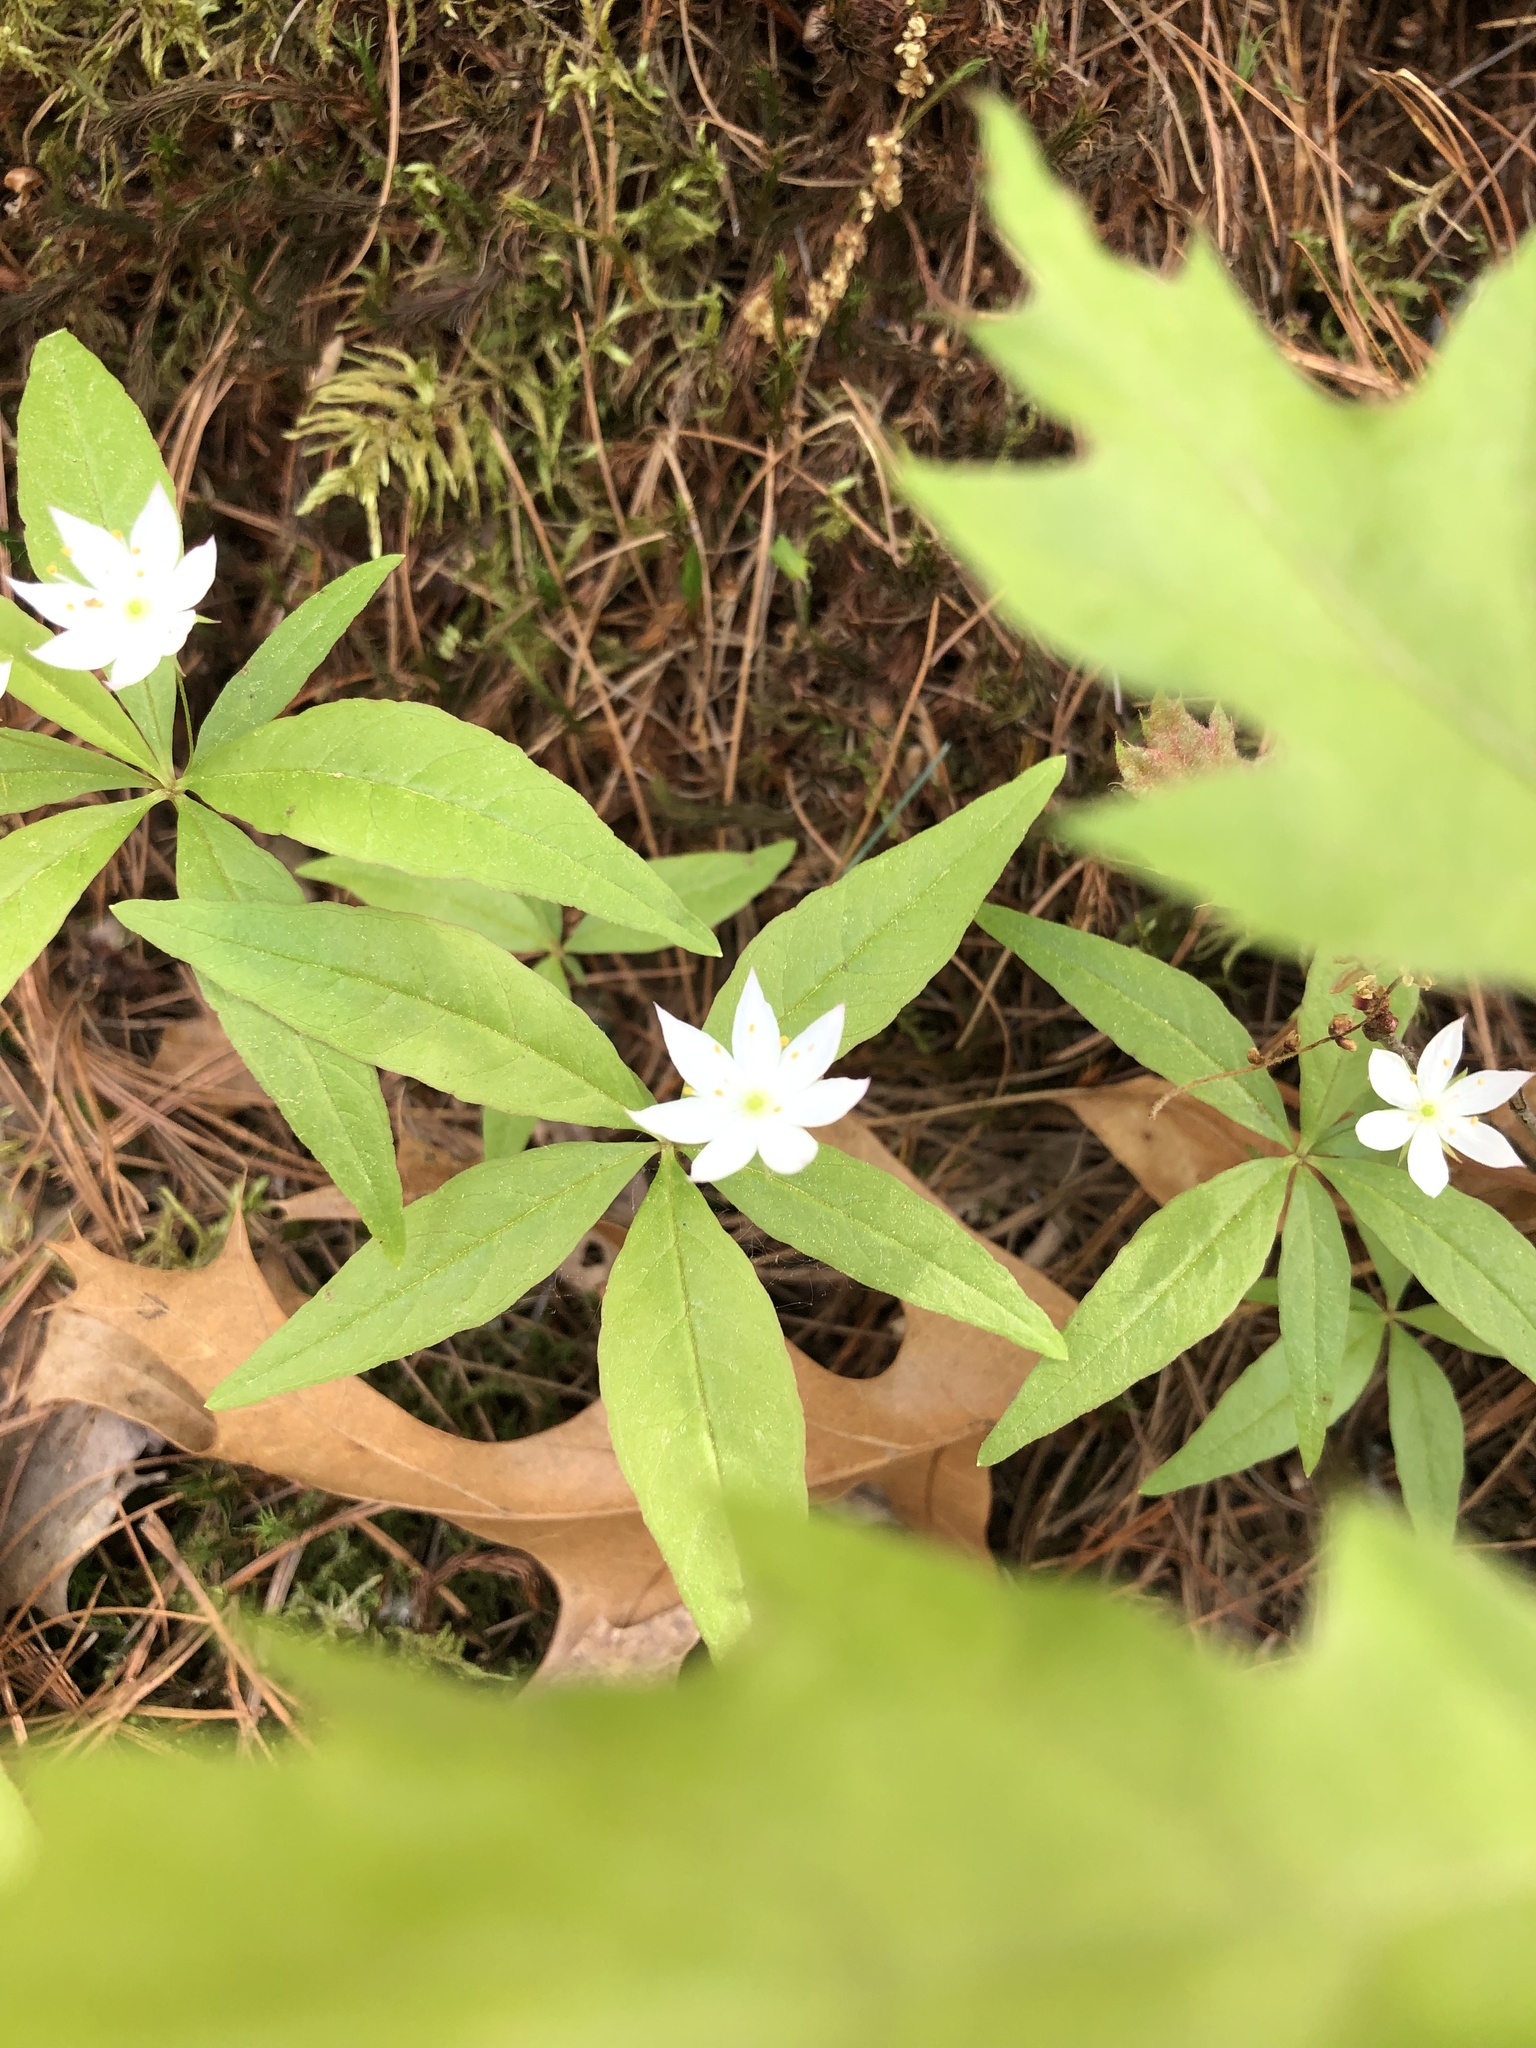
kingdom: Plantae
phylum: Tracheophyta
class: Magnoliopsida
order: Ericales
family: Primulaceae
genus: Lysimachia
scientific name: Lysimachia borealis
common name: American starflower
